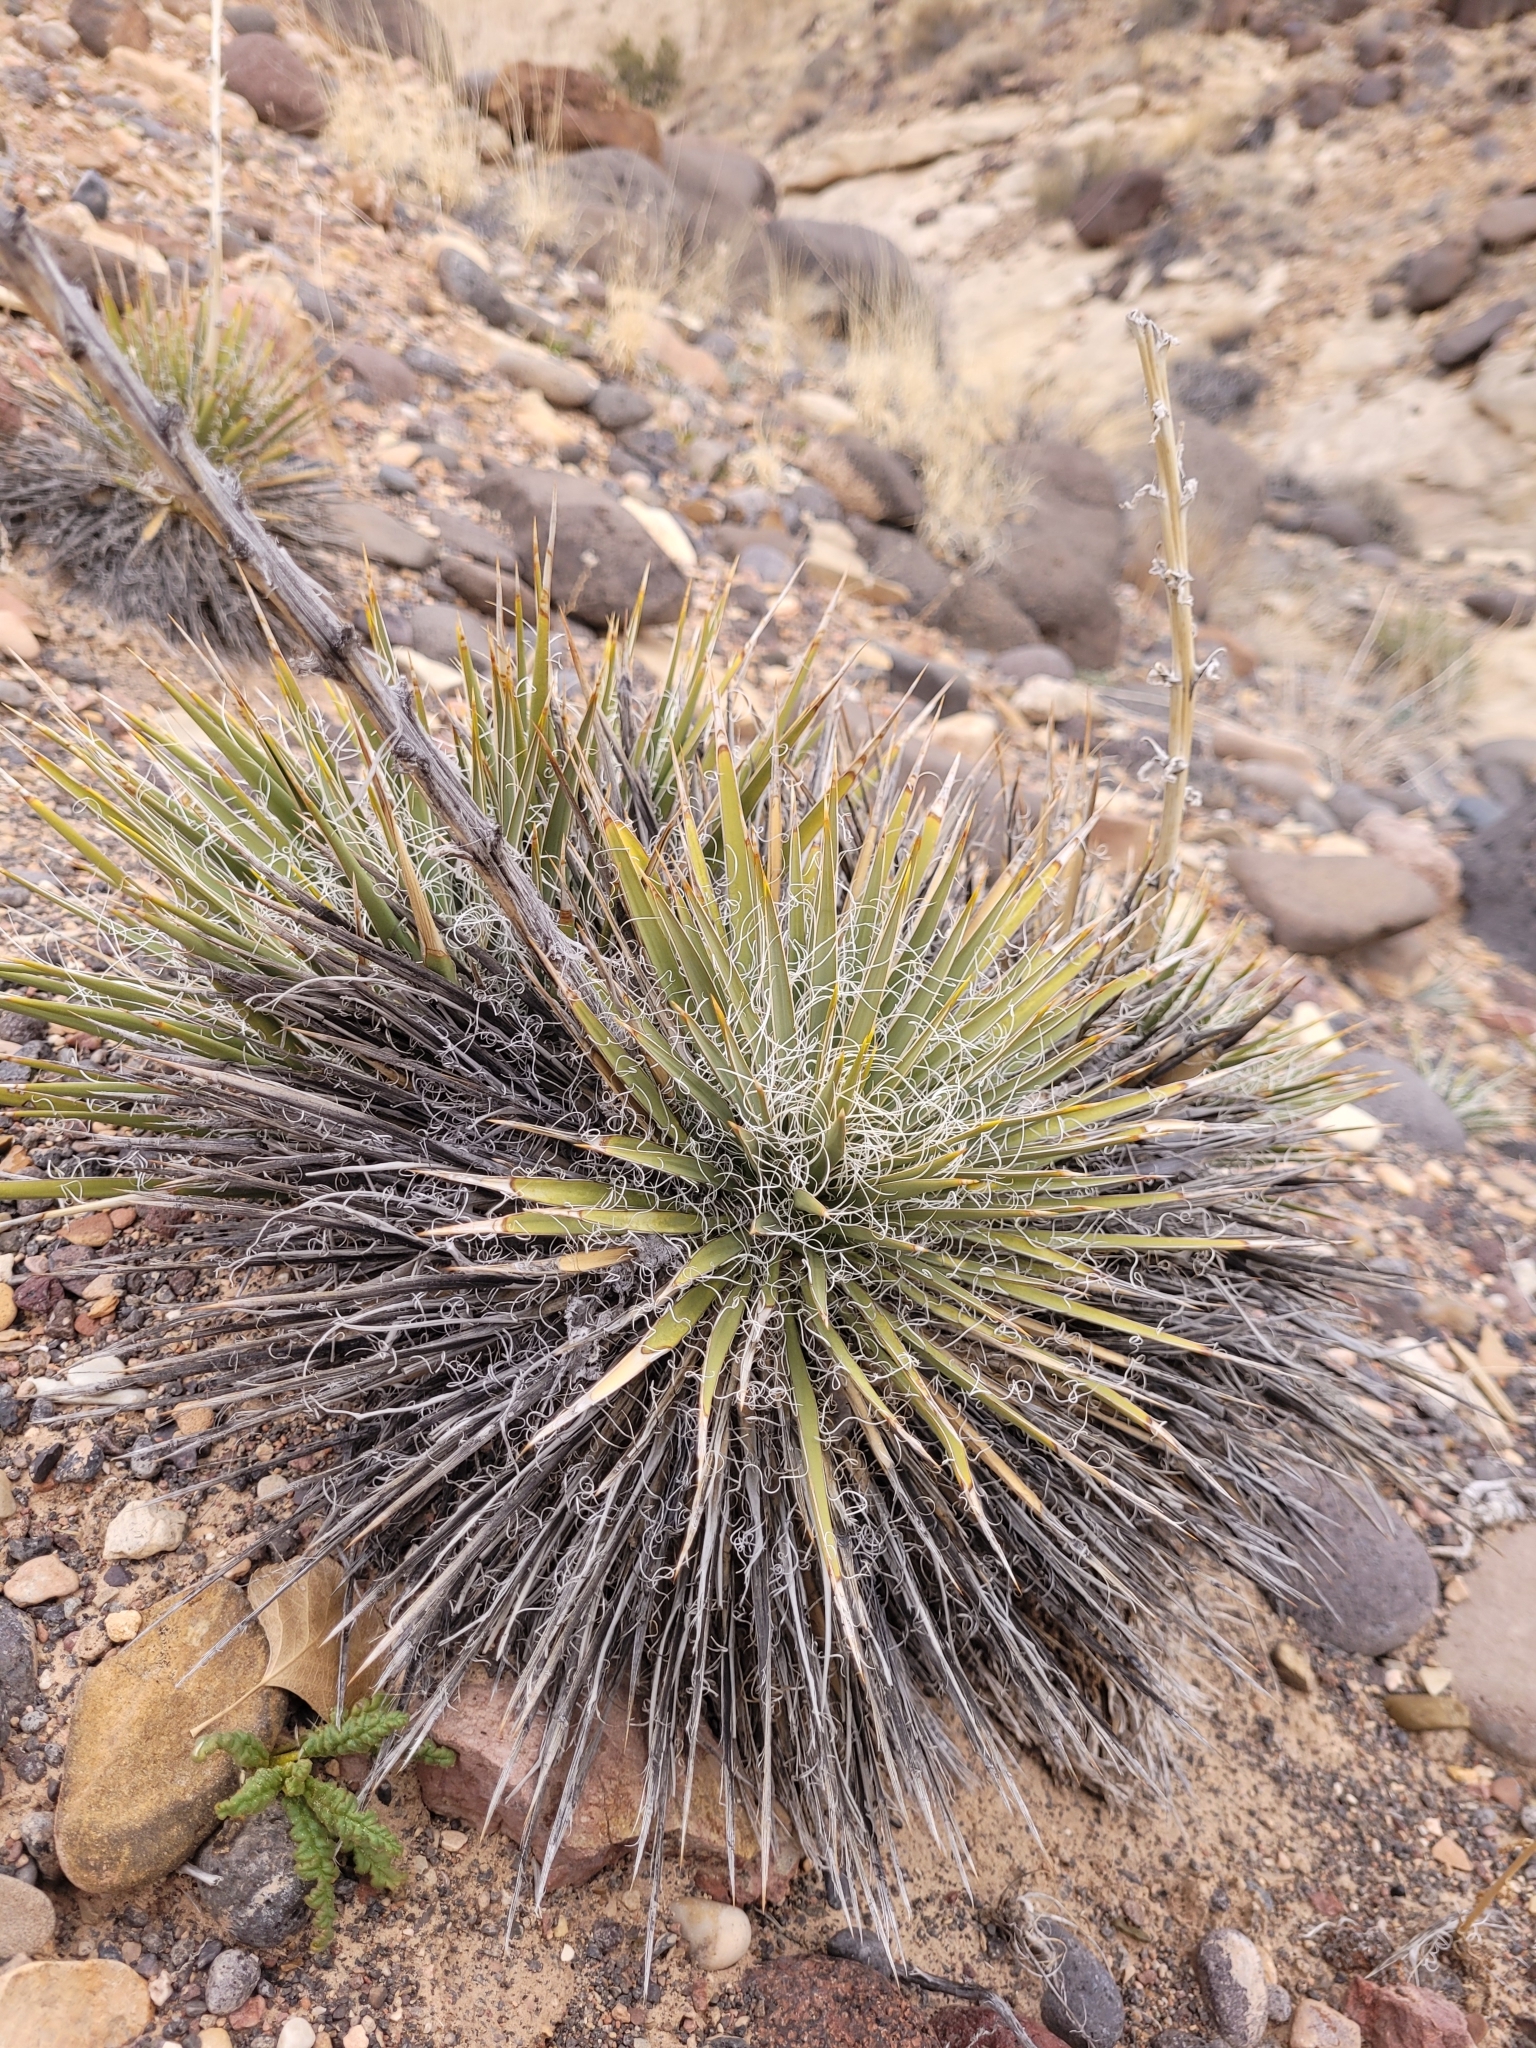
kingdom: Plantae
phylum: Tracheophyta
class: Liliopsida
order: Asparagales
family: Asparagaceae
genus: Yucca
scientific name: Yucca harrimaniae
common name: Harriman's yucca
